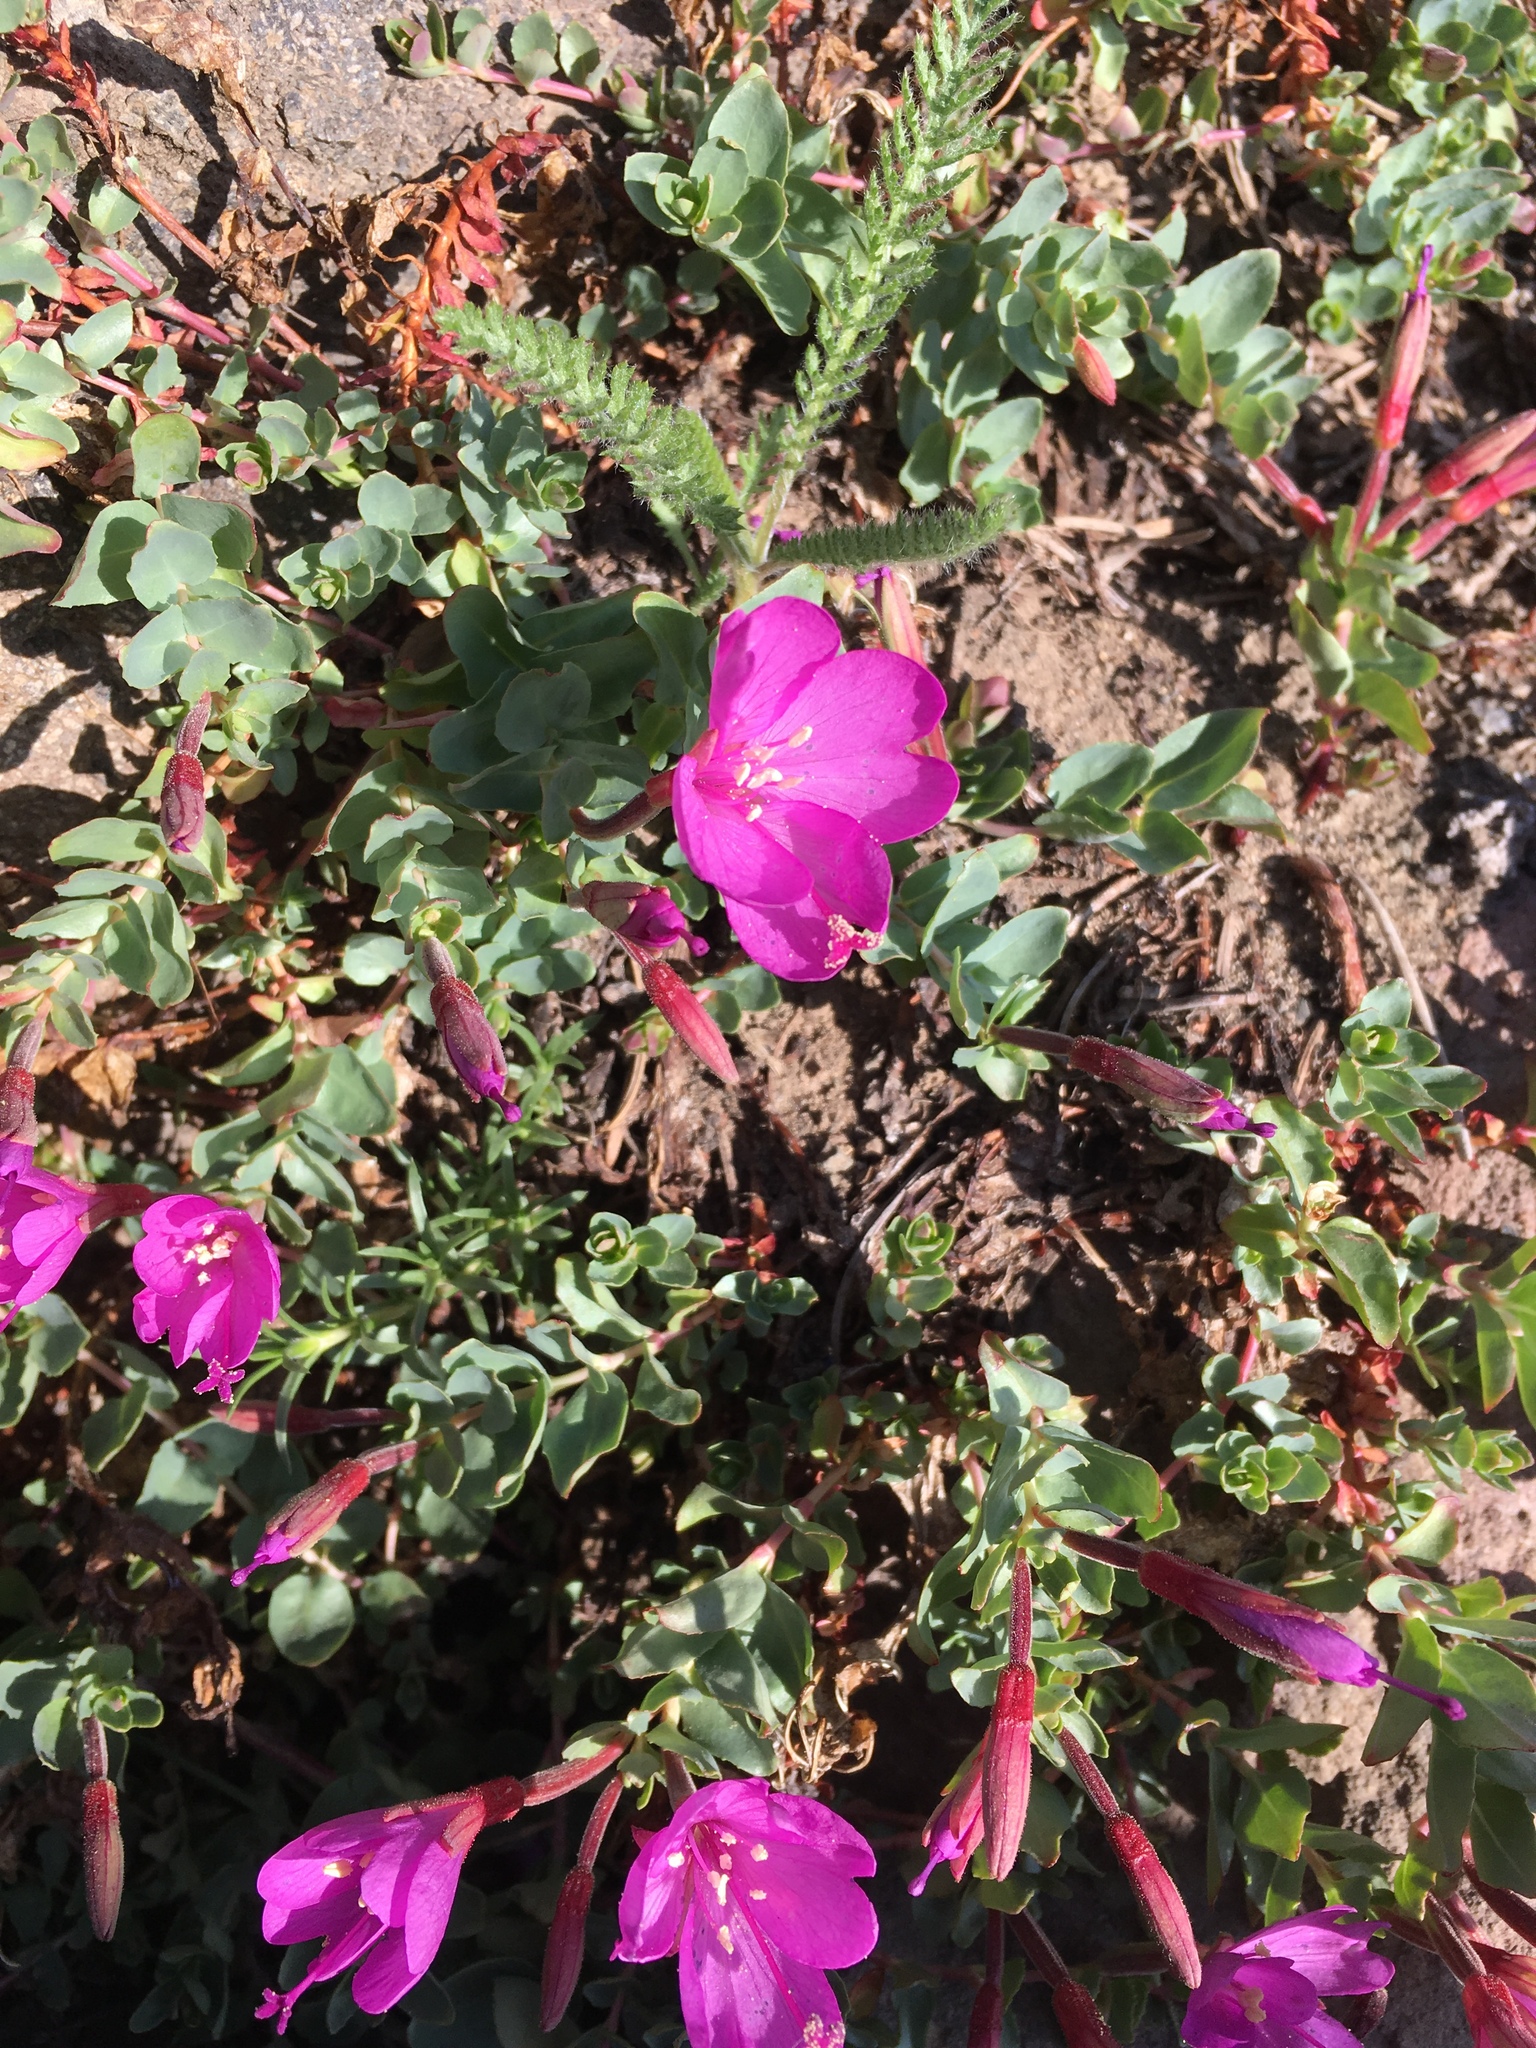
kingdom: Plantae
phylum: Tracheophyta
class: Magnoliopsida
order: Myrtales
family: Onagraceae
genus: Epilobium
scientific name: Epilobium obcordatum
